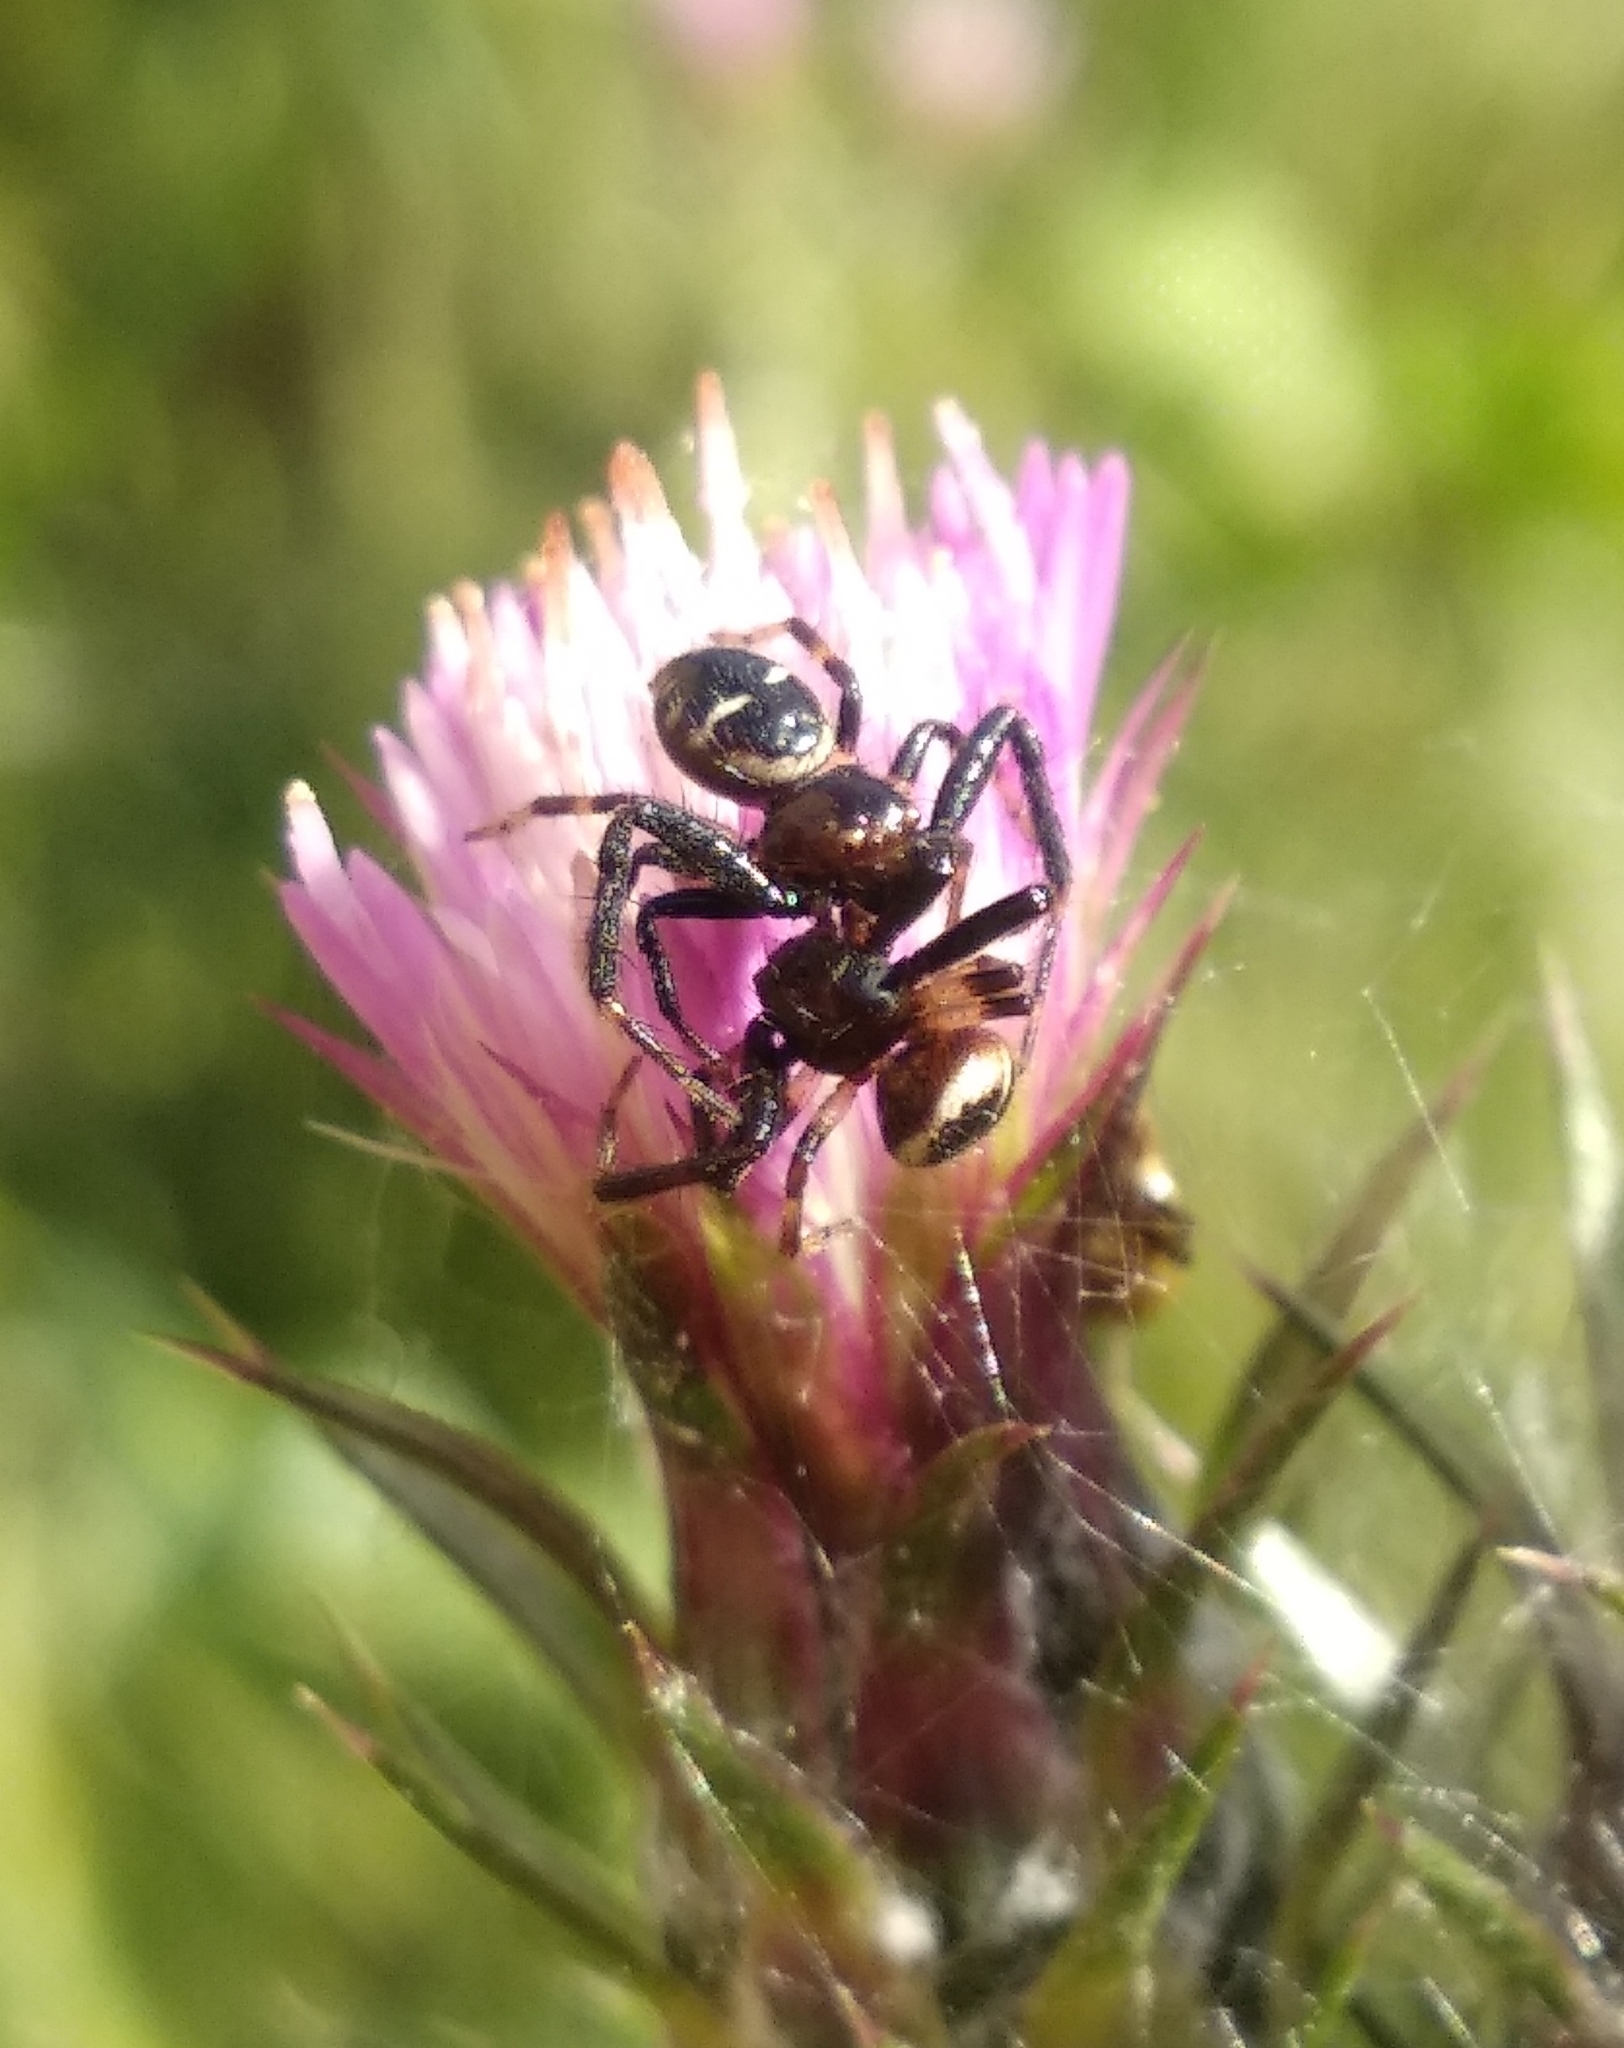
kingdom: Animalia
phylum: Arthropoda
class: Arachnida
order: Araneae
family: Thomisidae
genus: Synema
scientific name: Synema globosum
